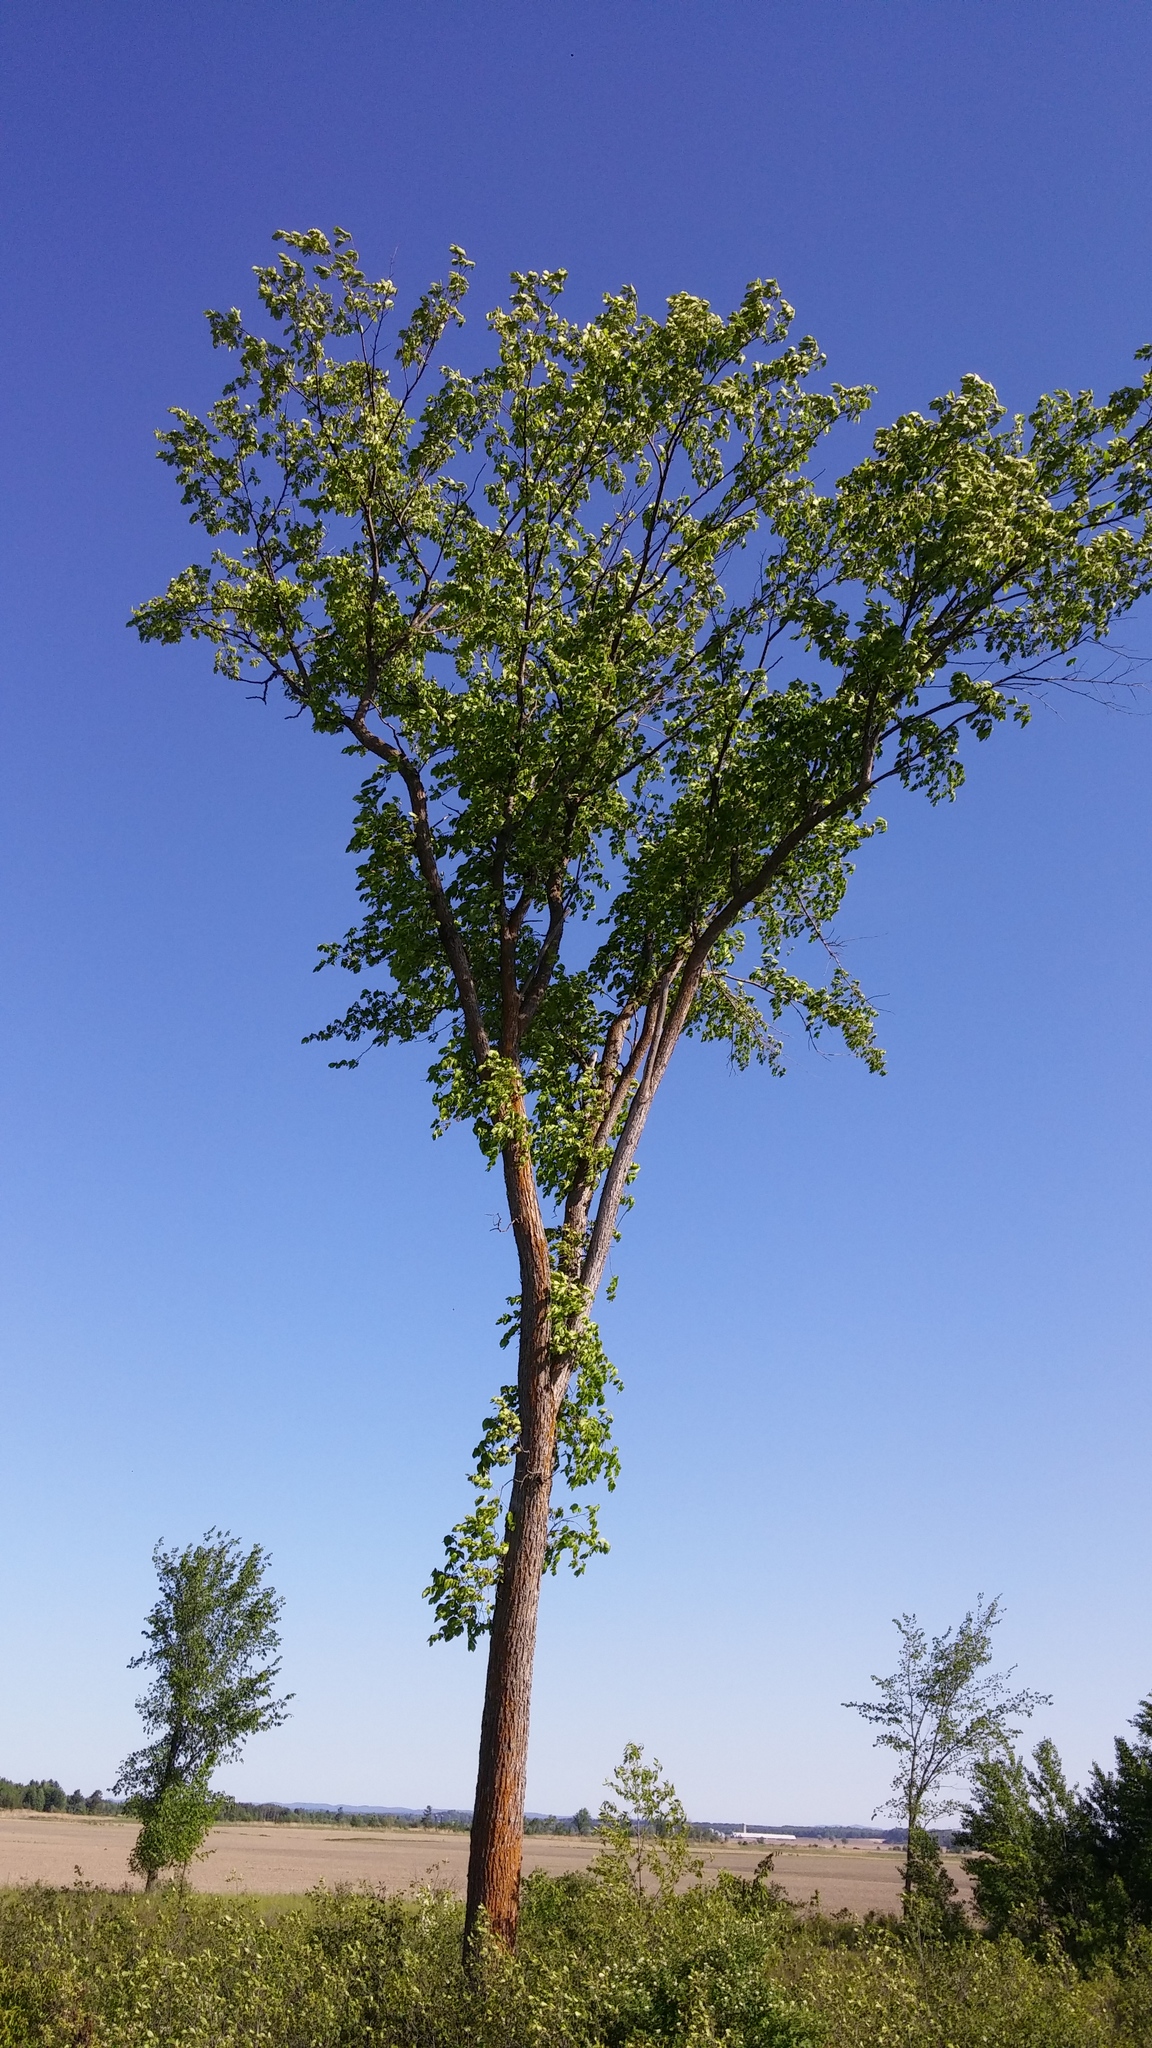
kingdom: Plantae
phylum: Tracheophyta
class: Magnoliopsida
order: Rosales
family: Ulmaceae
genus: Ulmus
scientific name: Ulmus americana
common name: American elm
